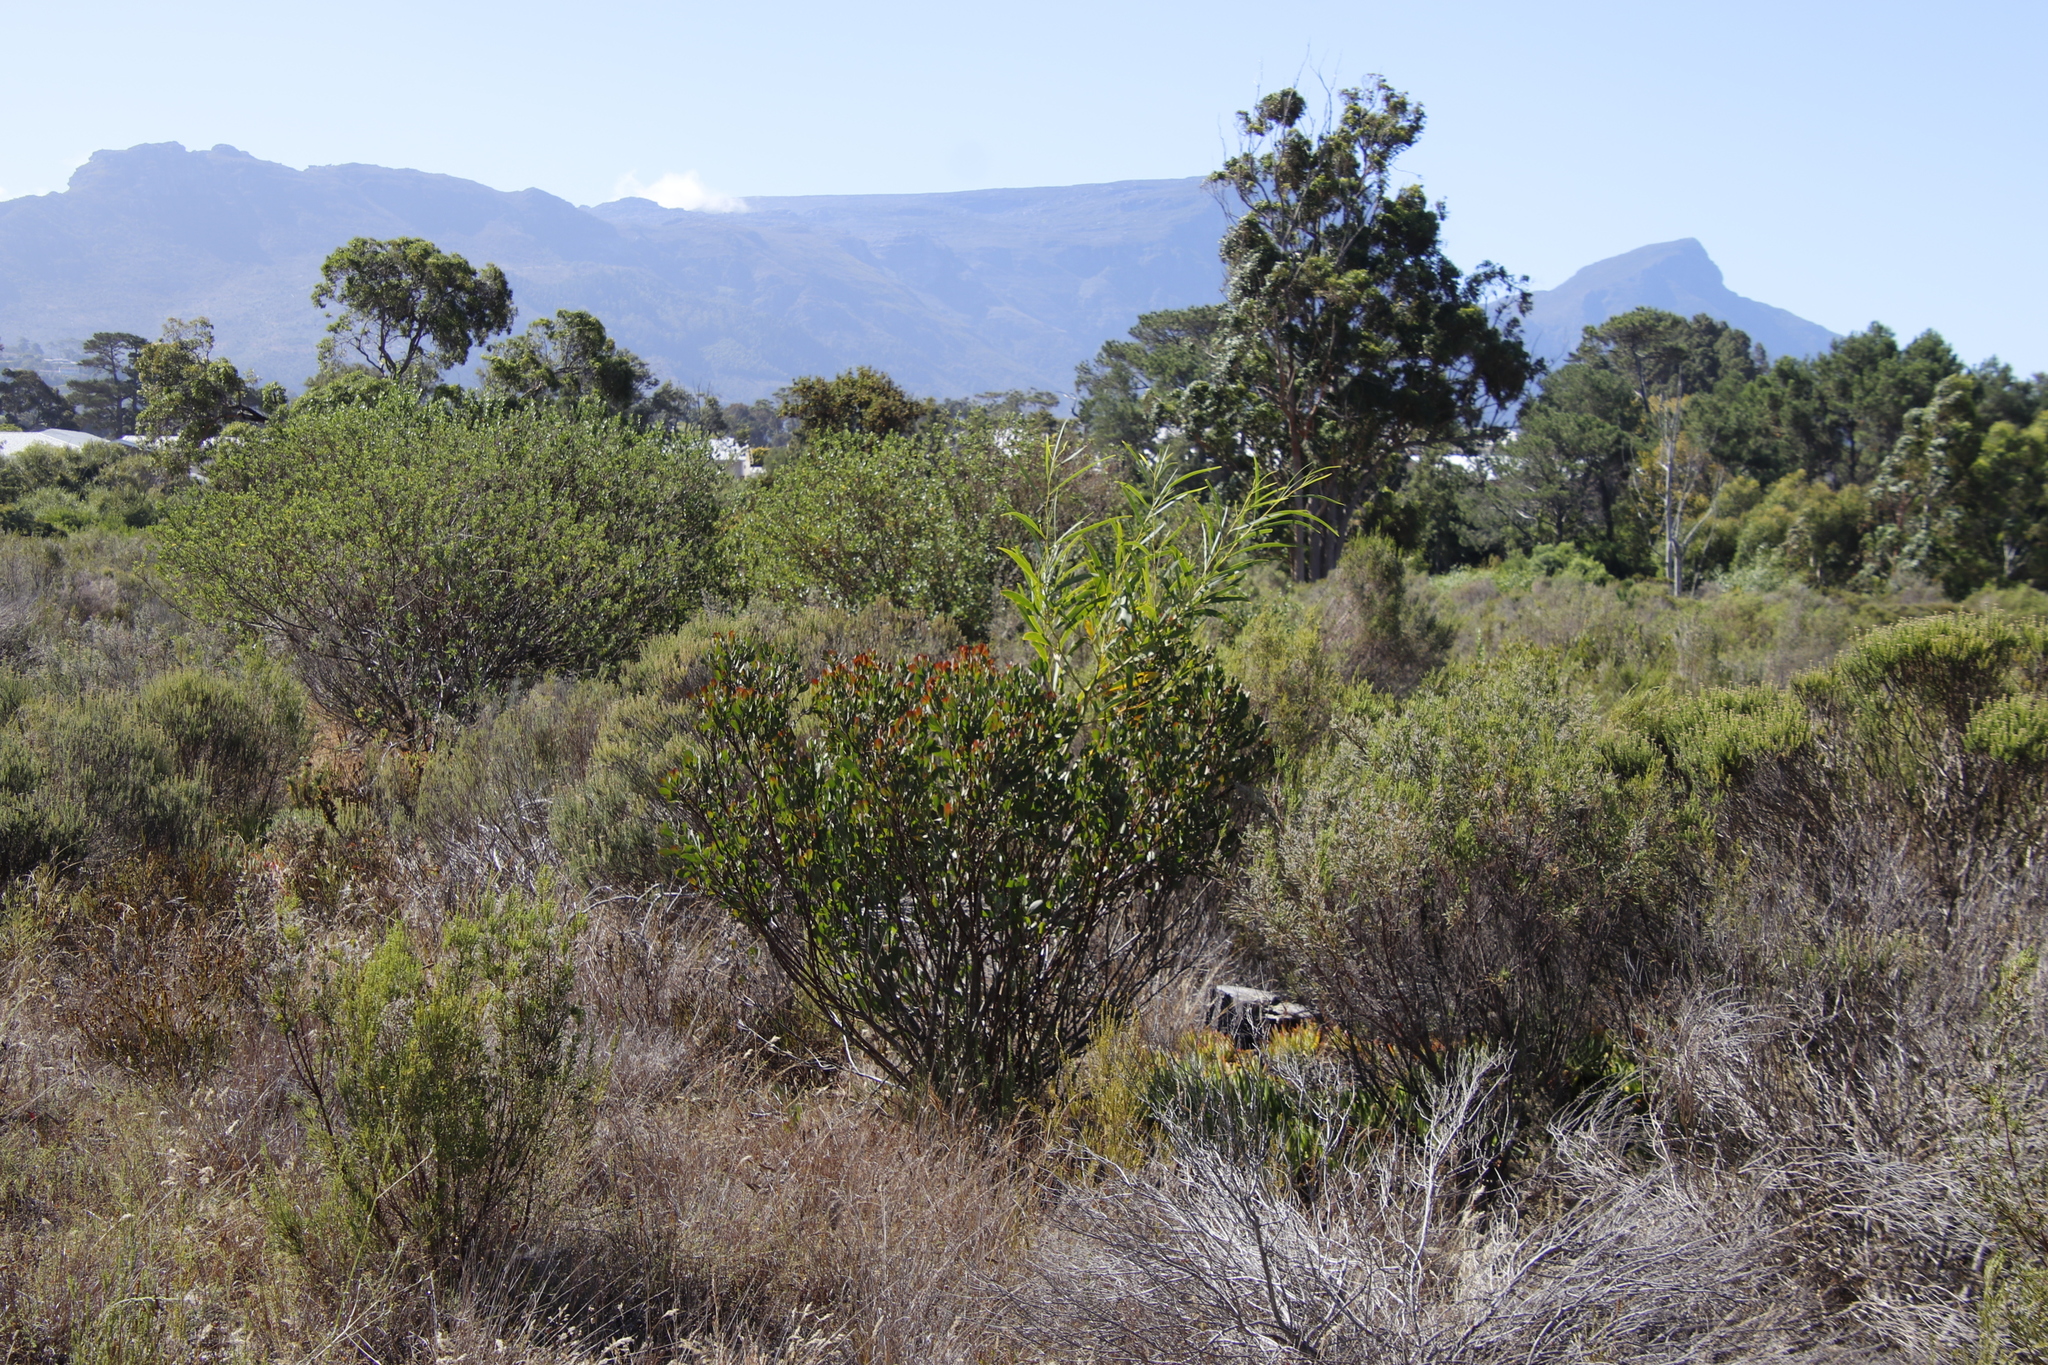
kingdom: Plantae
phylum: Tracheophyta
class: Magnoliopsida
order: Asterales
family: Asteraceae
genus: Osteospermum
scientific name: Osteospermum moniliferum
